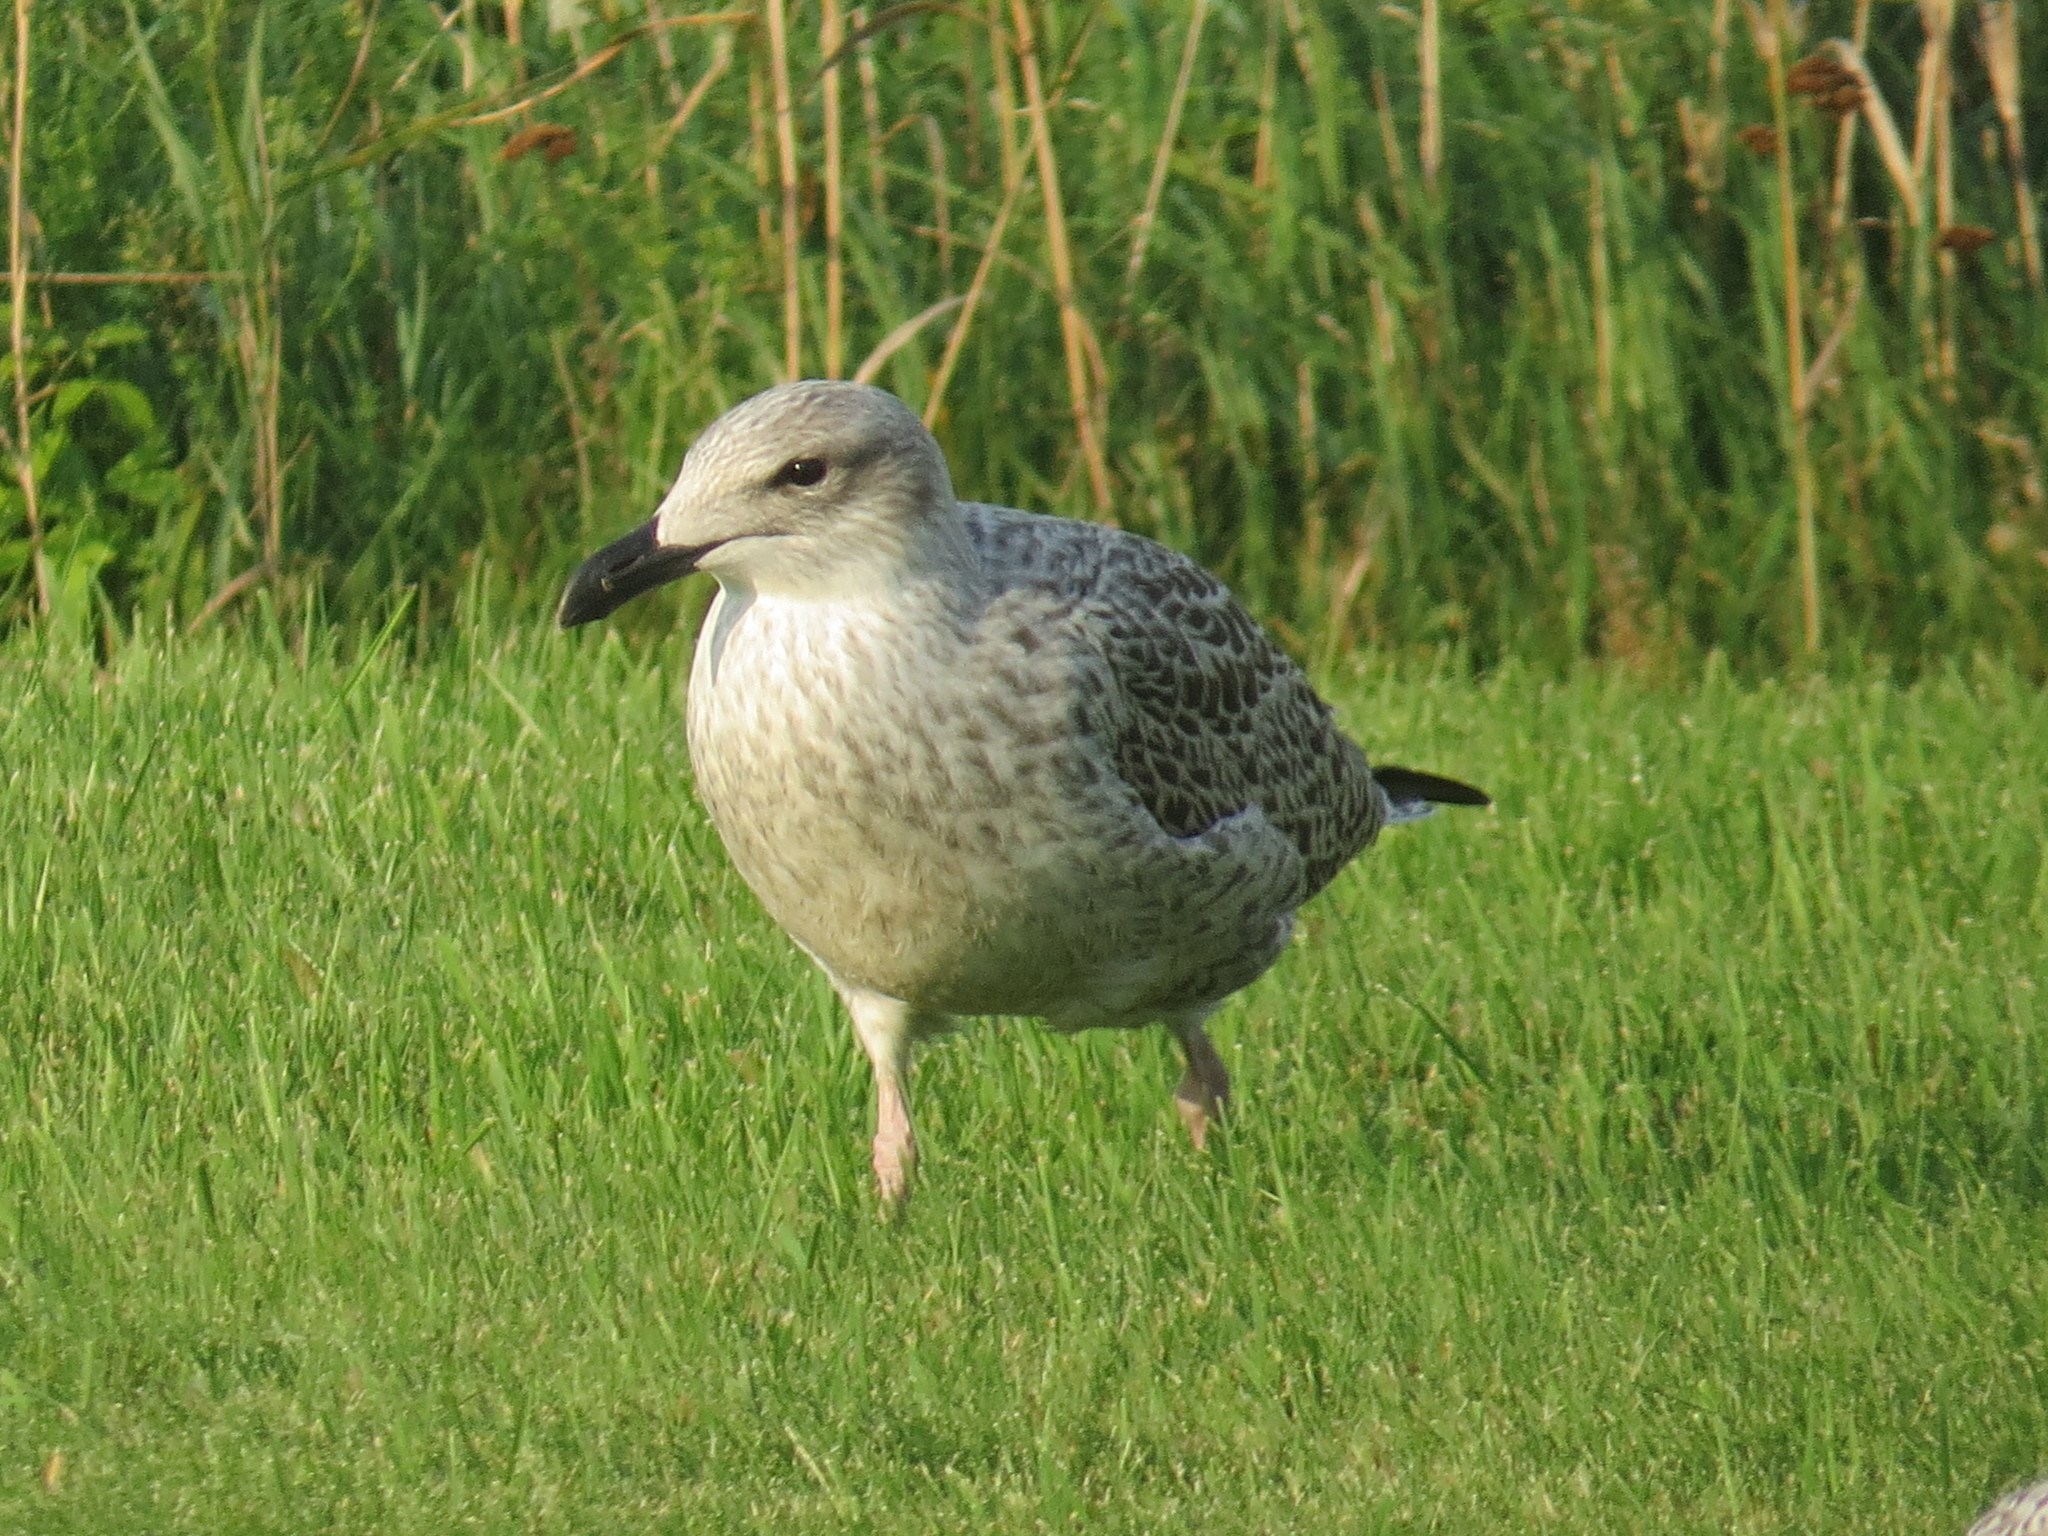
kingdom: Animalia
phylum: Chordata
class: Aves
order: Charadriiformes
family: Laridae
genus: Larus
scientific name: Larus marinus
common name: Great black-backed gull
